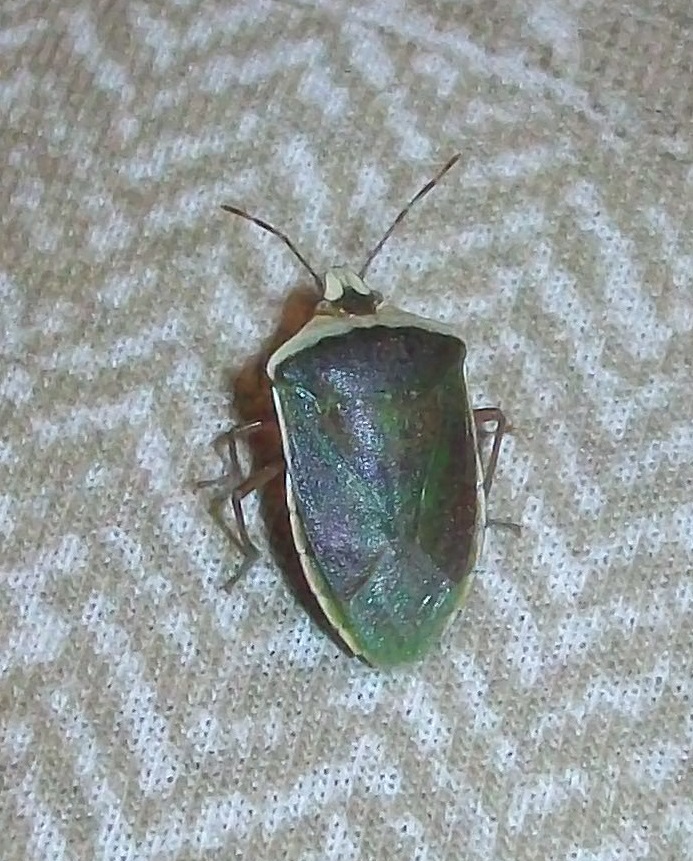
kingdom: Animalia
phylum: Arthropoda
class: Insecta
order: Hemiptera
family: Pentatomidae
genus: Nezara
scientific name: Nezara viridula
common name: Southern green stink bug
